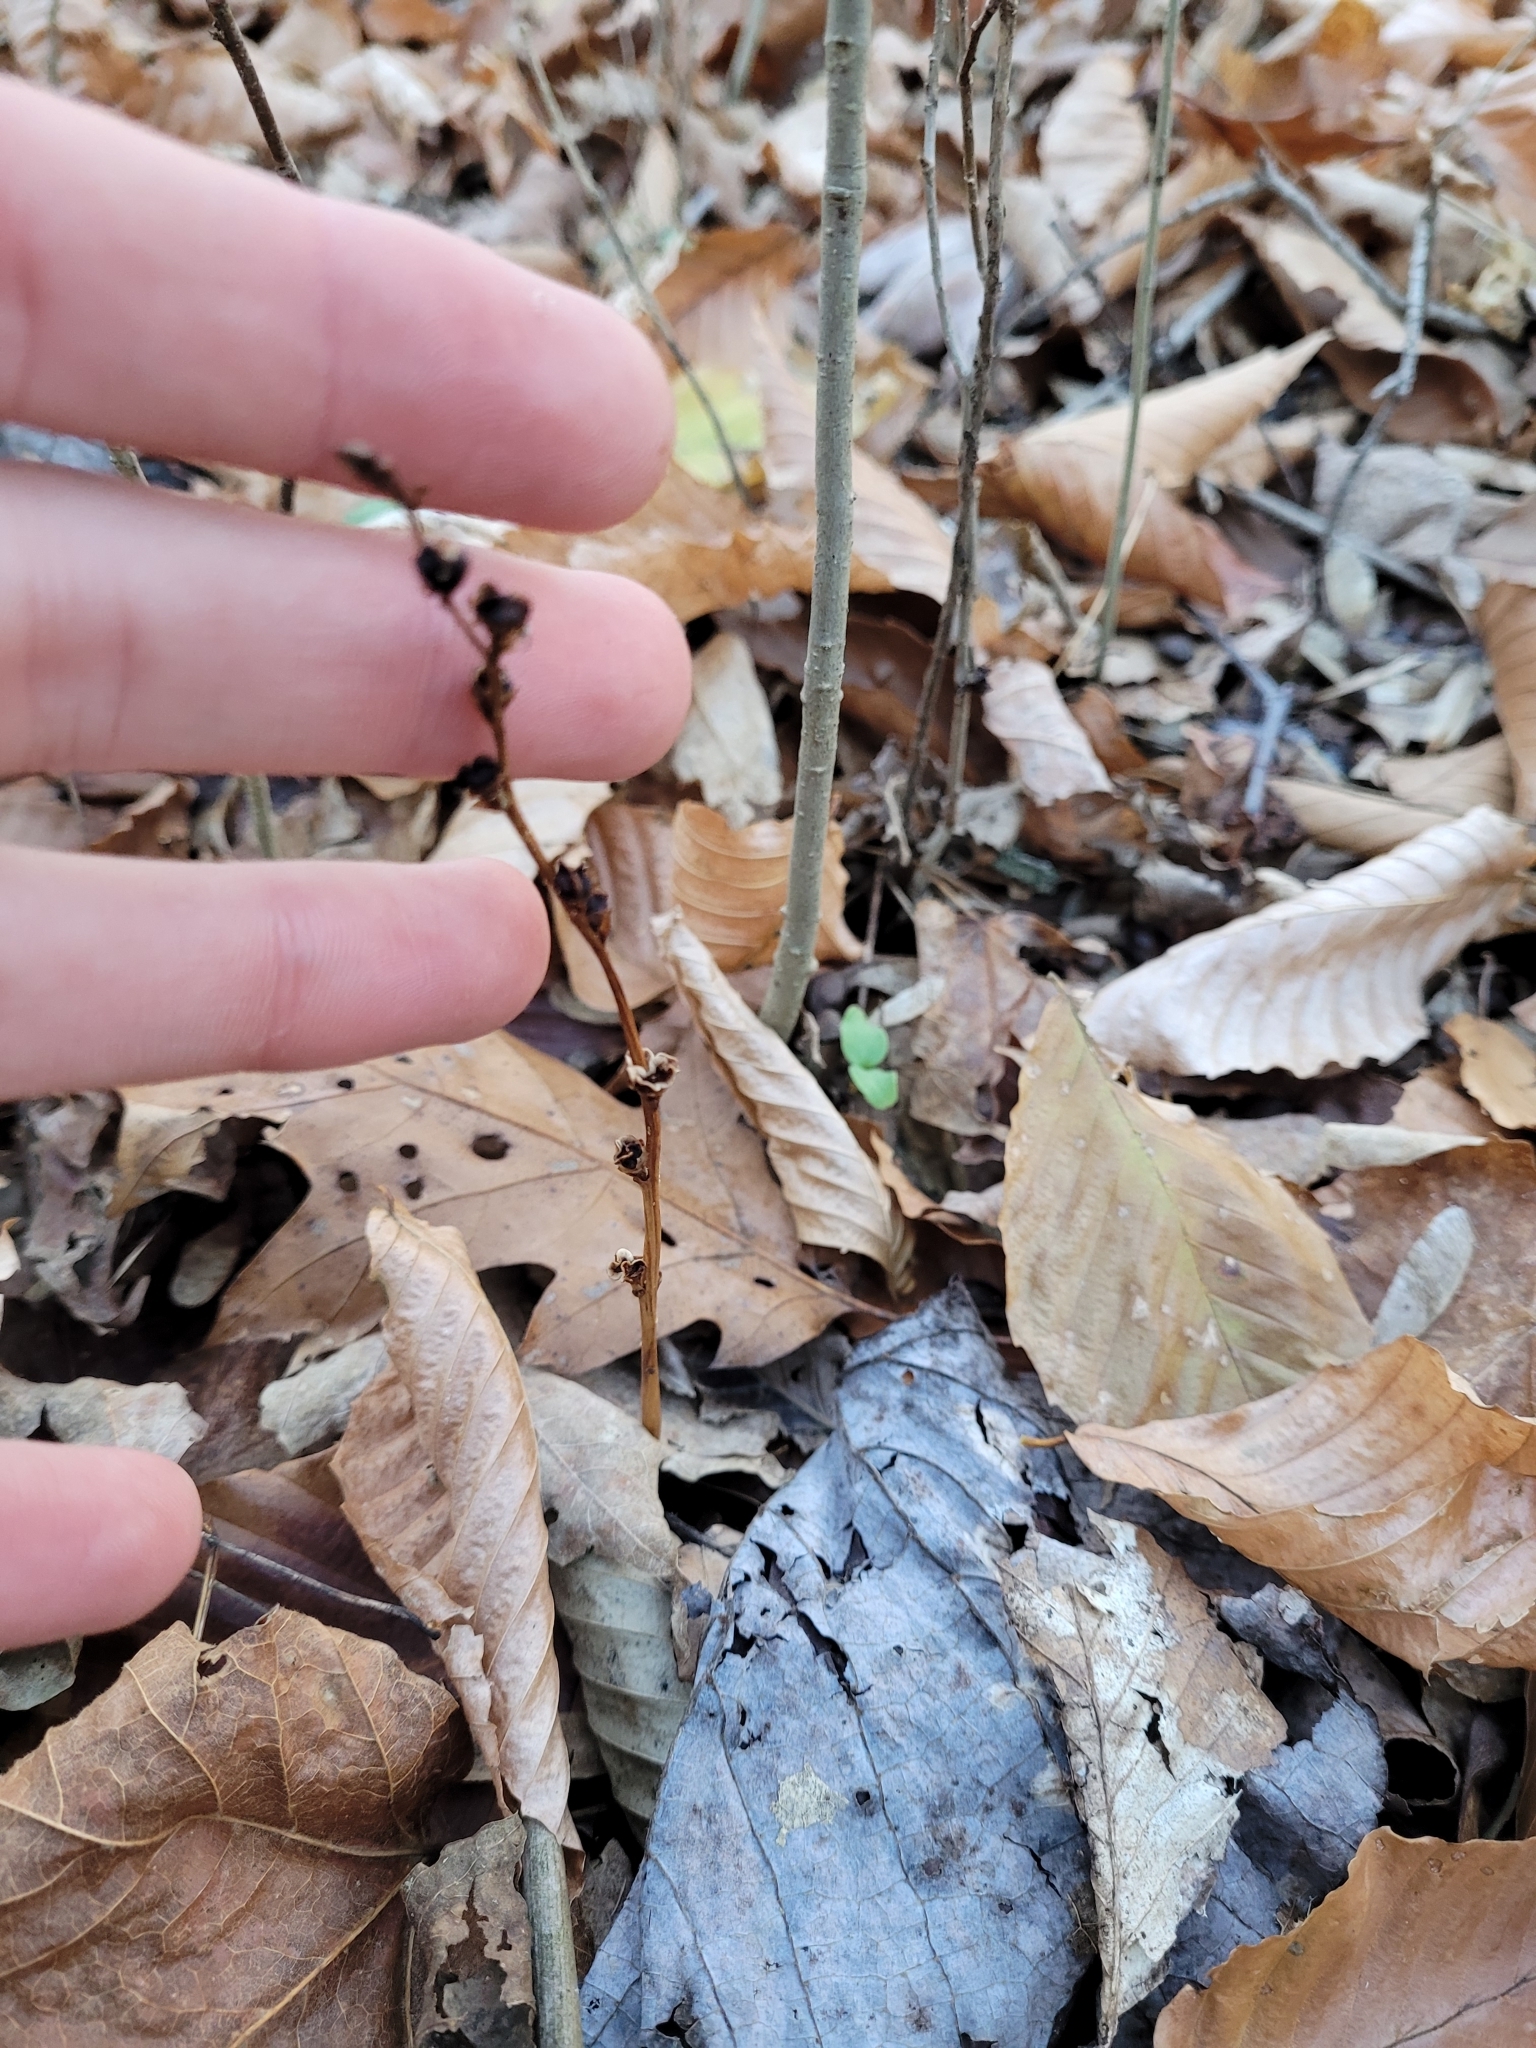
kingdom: Plantae
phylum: Tracheophyta
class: Magnoliopsida
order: Lamiales
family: Orobanchaceae
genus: Epifagus
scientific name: Epifagus virginiana
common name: Beechdrops
